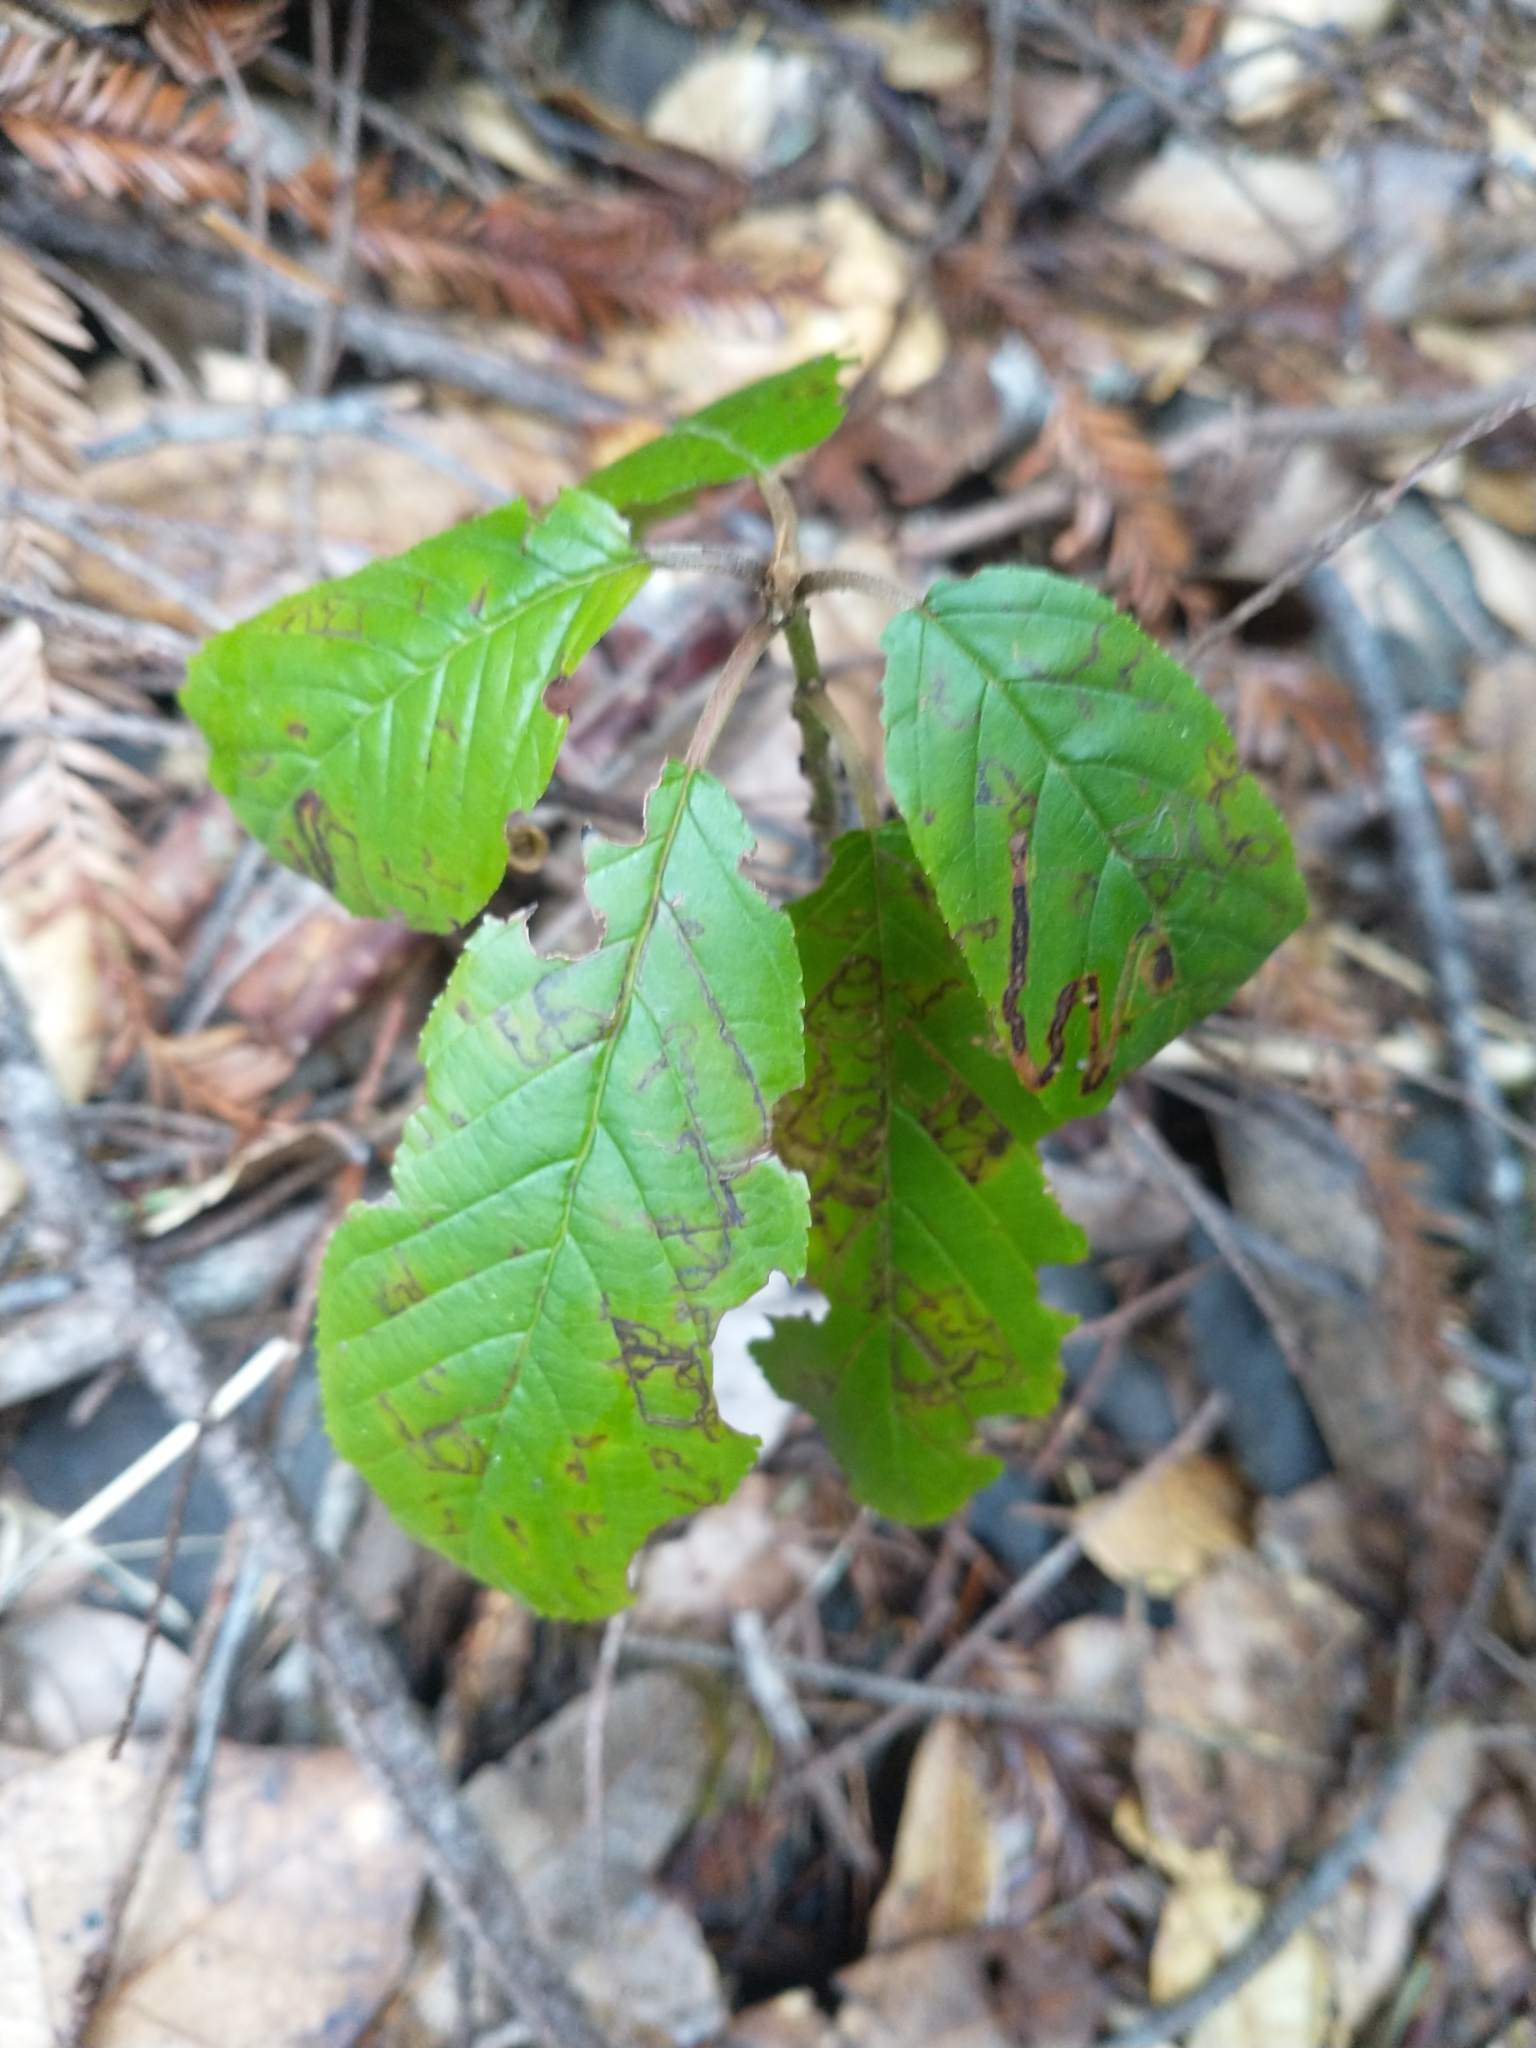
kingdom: Plantae
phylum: Tracheophyta
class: Magnoliopsida
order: Rosales
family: Rhamnaceae
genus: Frangula
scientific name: Frangula purshiana
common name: Cascara buckthorn
